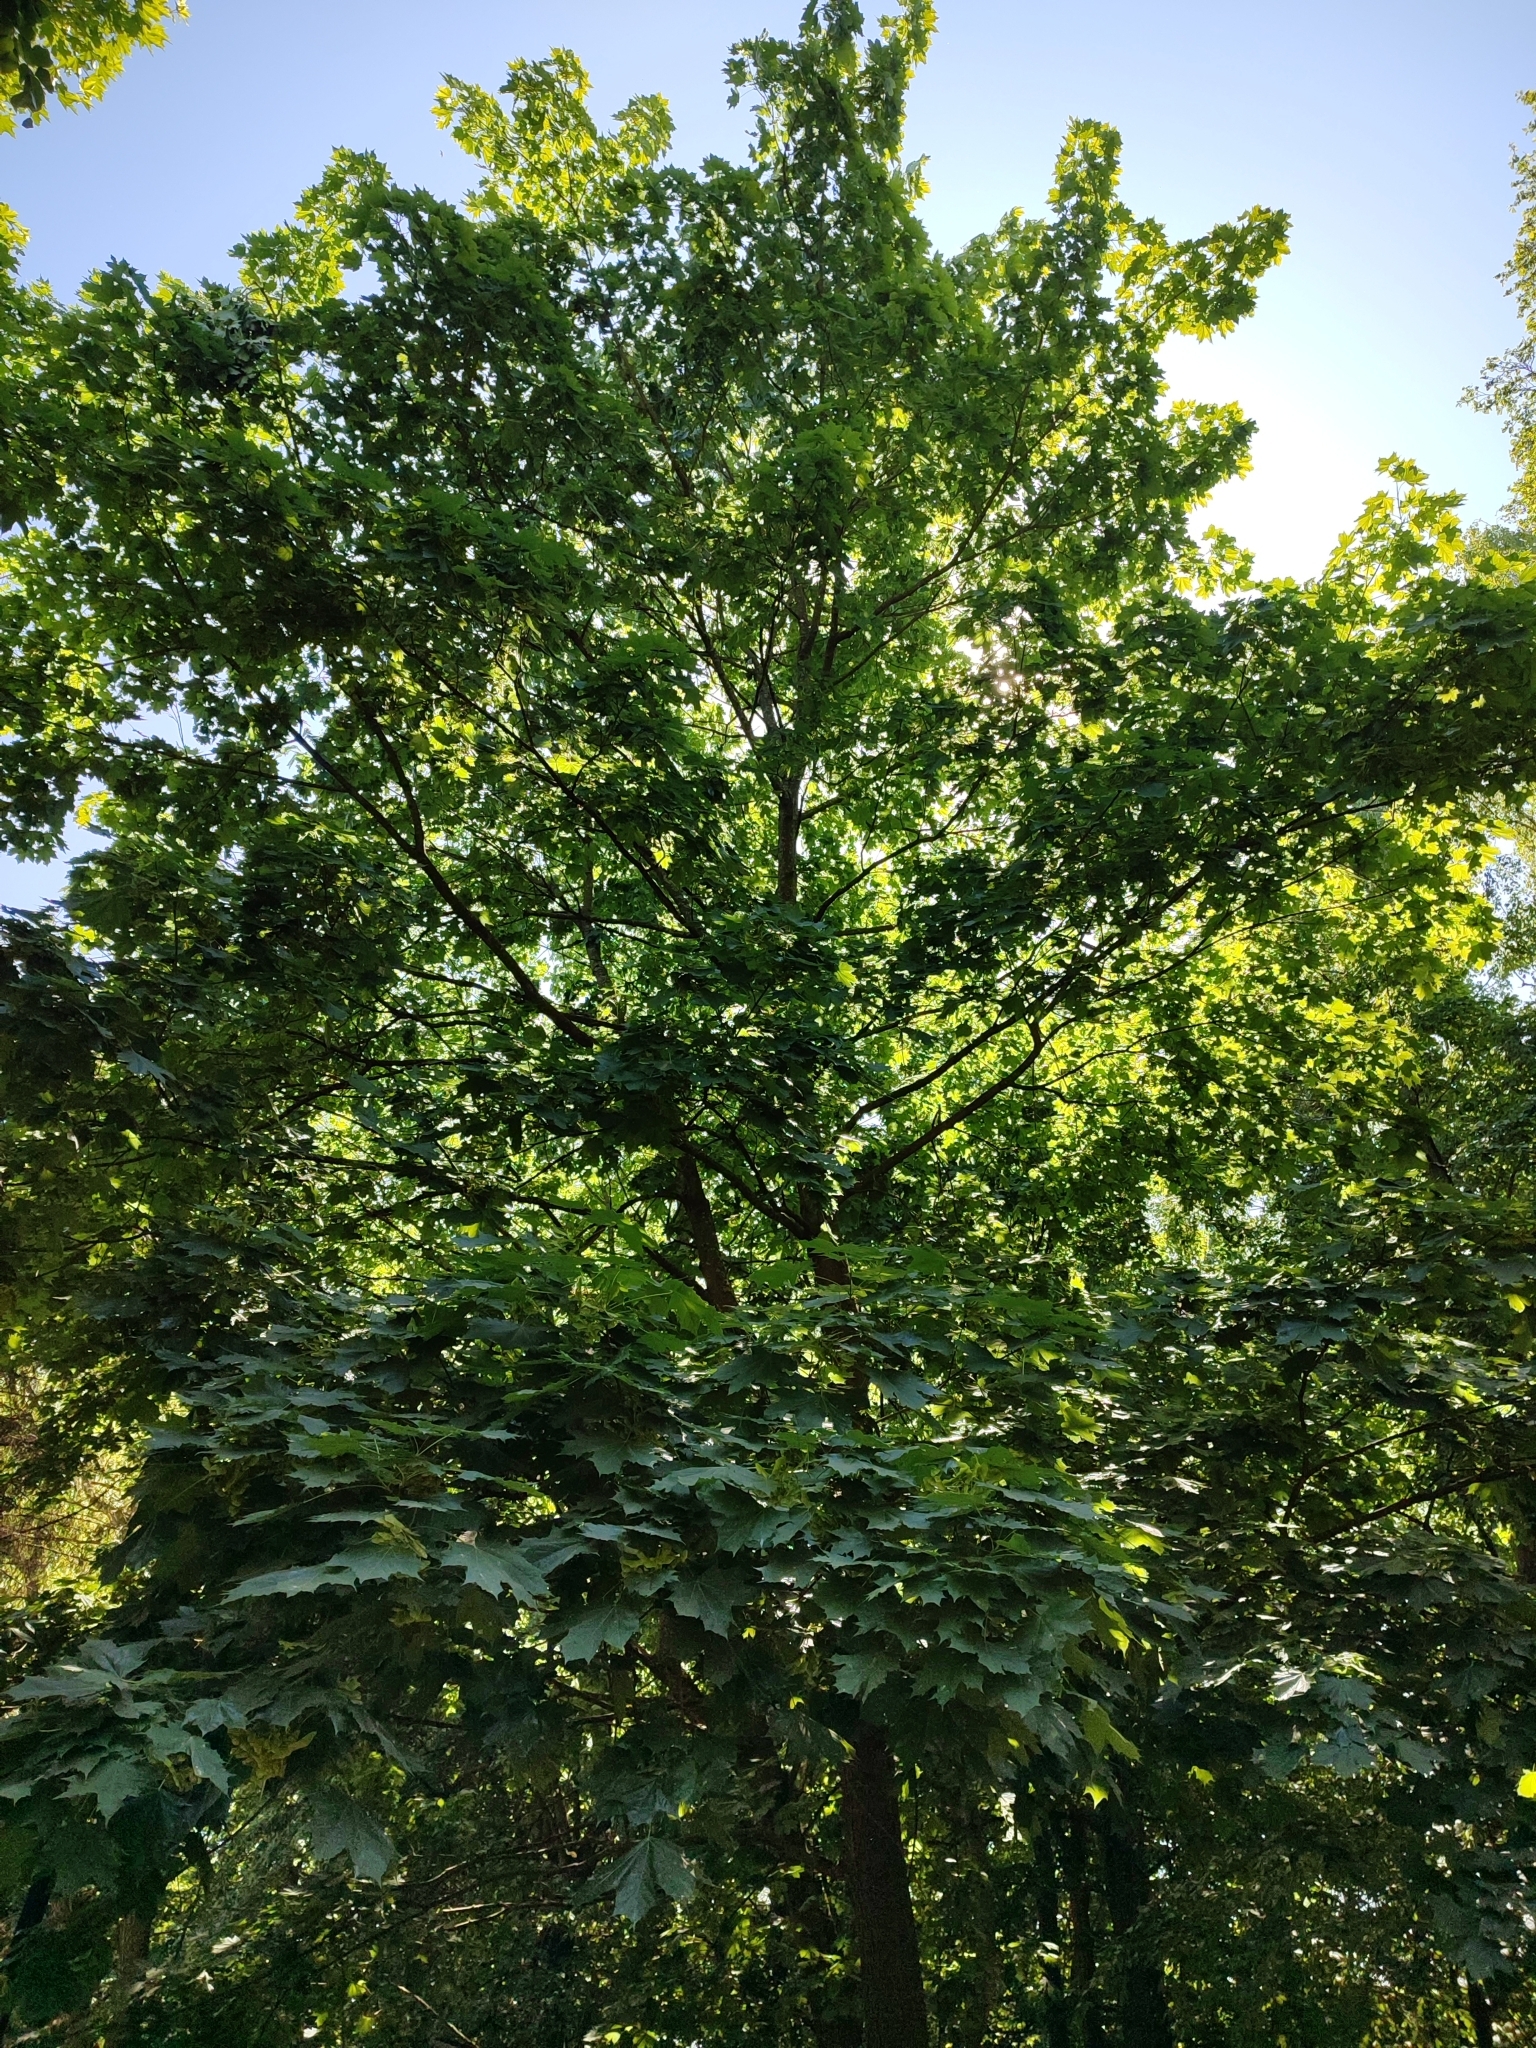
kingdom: Plantae
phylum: Tracheophyta
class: Magnoliopsida
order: Sapindales
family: Sapindaceae
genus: Acer
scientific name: Acer platanoides
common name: Norway maple
